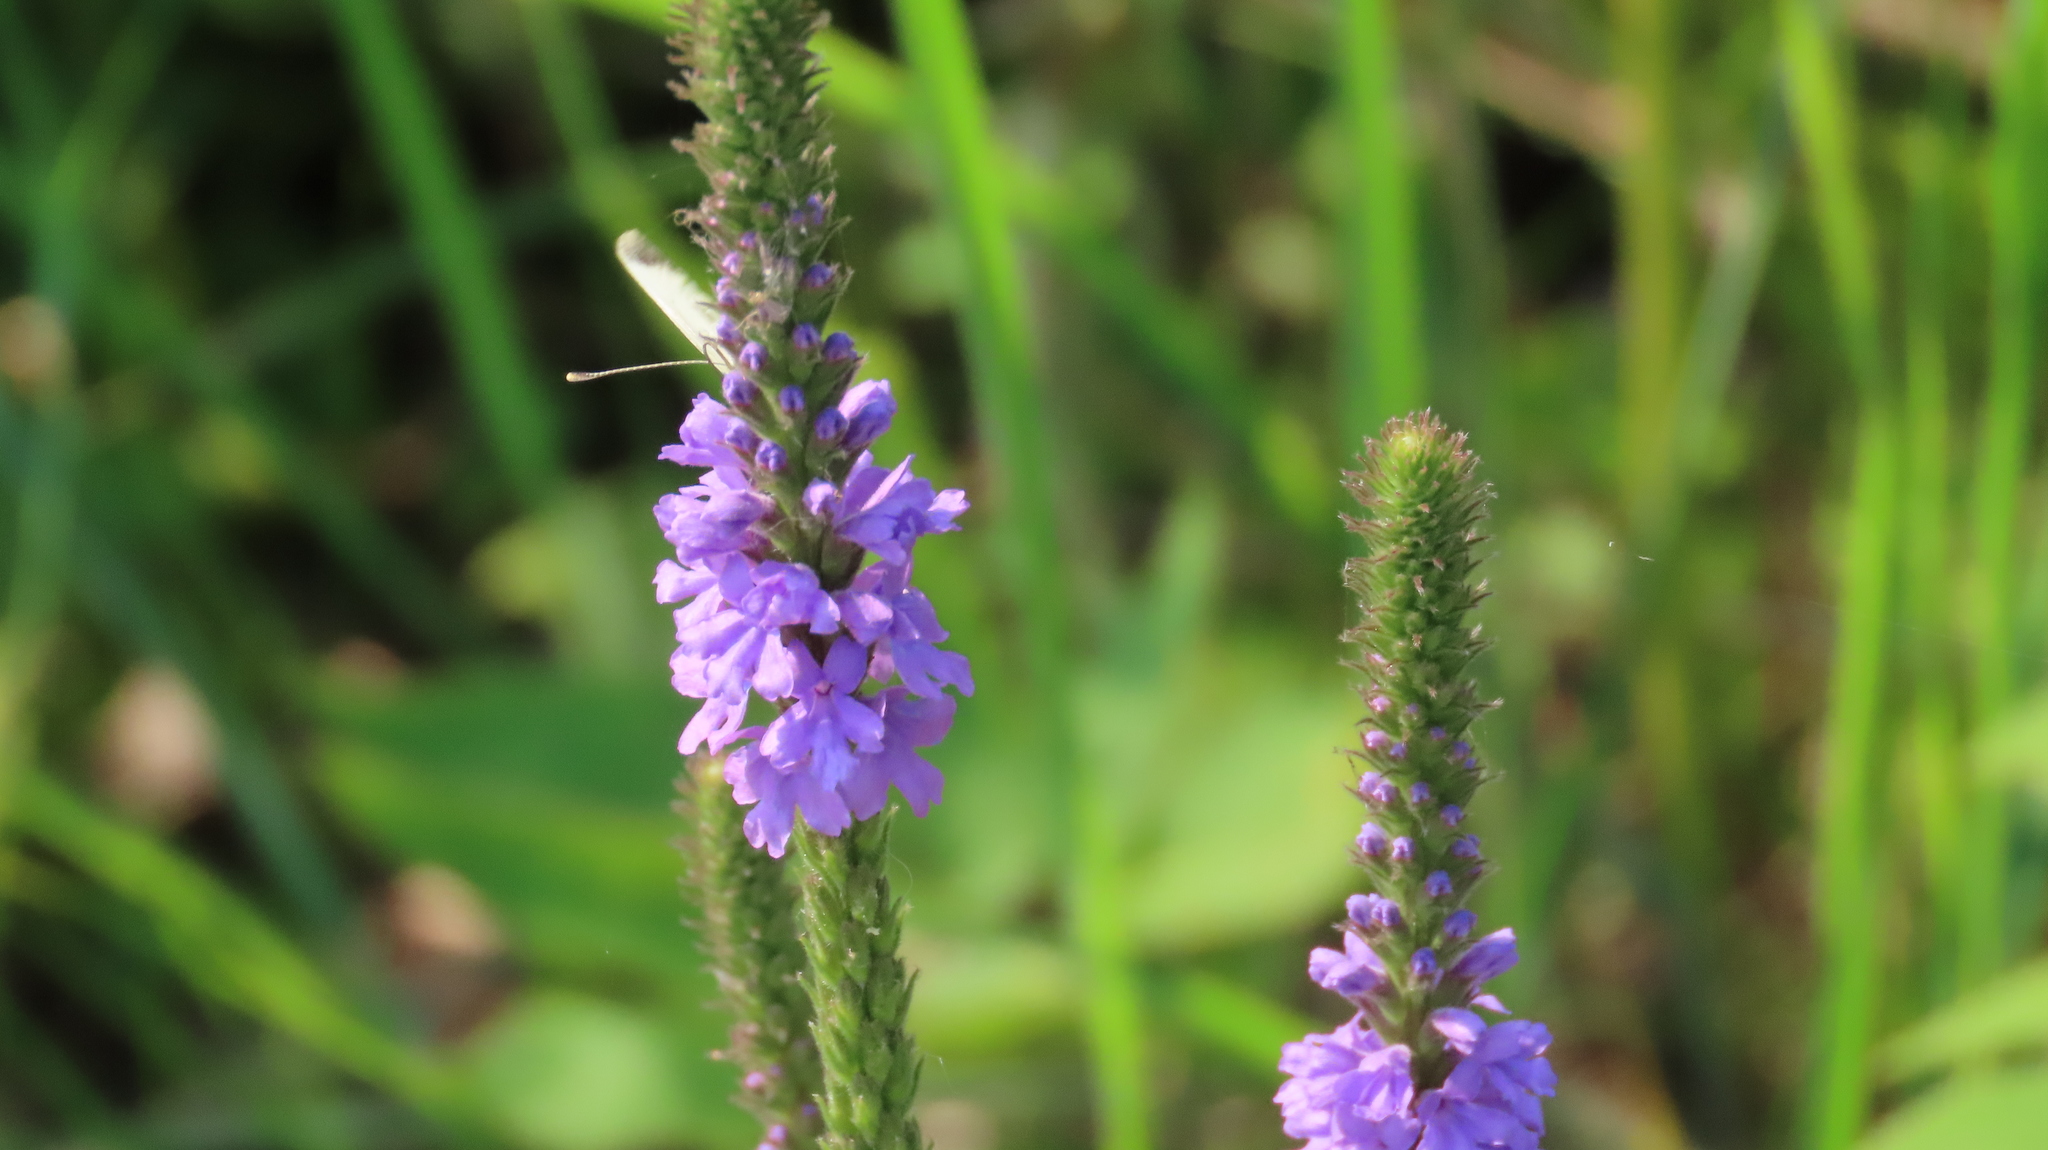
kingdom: Plantae
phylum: Tracheophyta
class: Magnoliopsida
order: Lamiales
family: Verbenaceae
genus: Verbena
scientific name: Verbena stricta
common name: Hoary vervain
